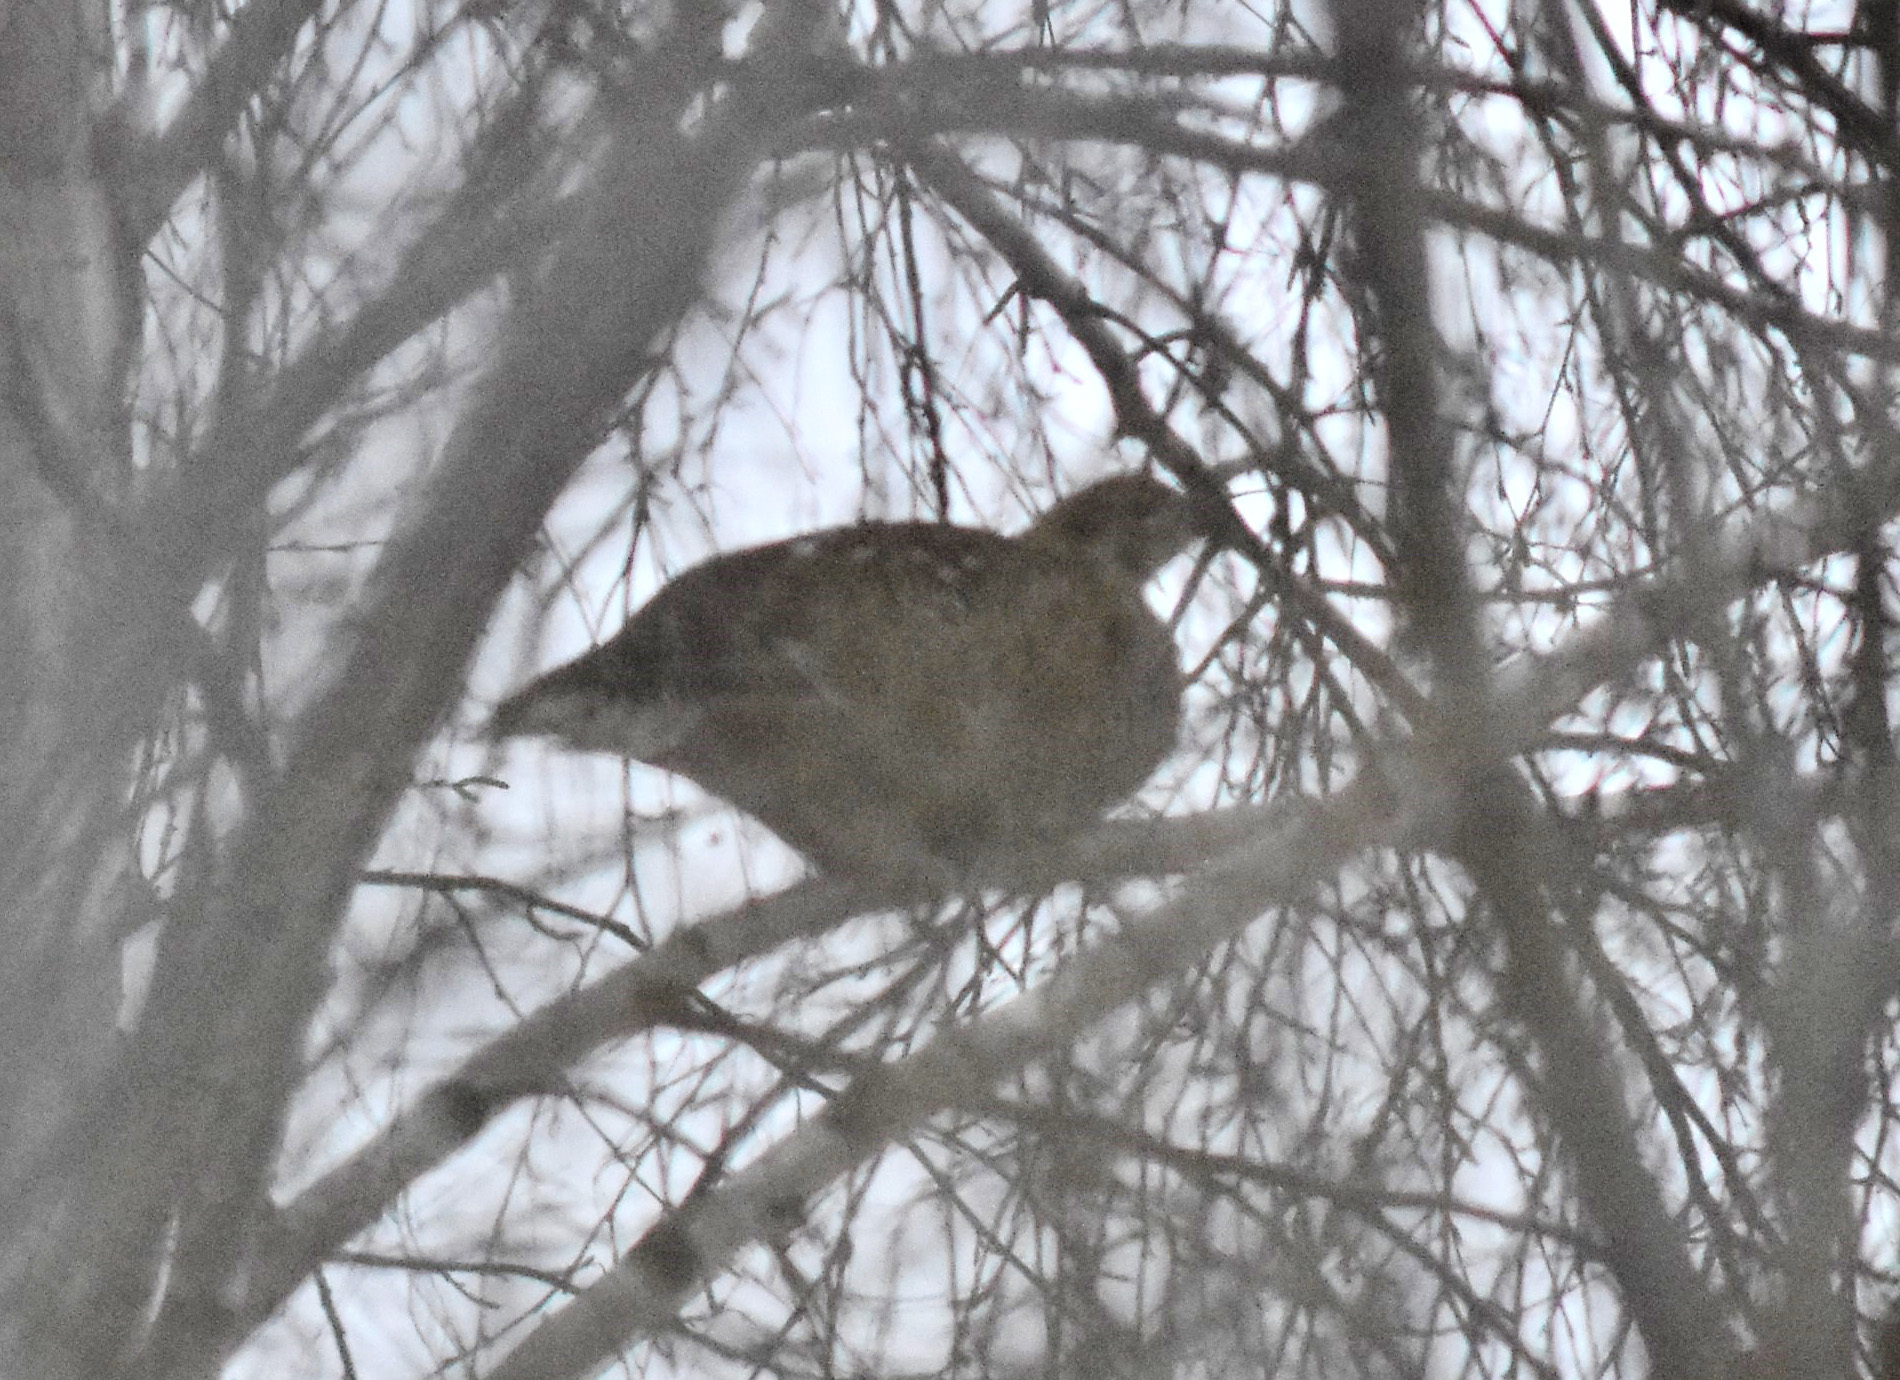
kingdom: Animalia
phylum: Chordata
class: Aves
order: Galliformes
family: Phasianidae
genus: Lyrurus
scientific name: Lyrurus tetrix
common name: Black grouse
